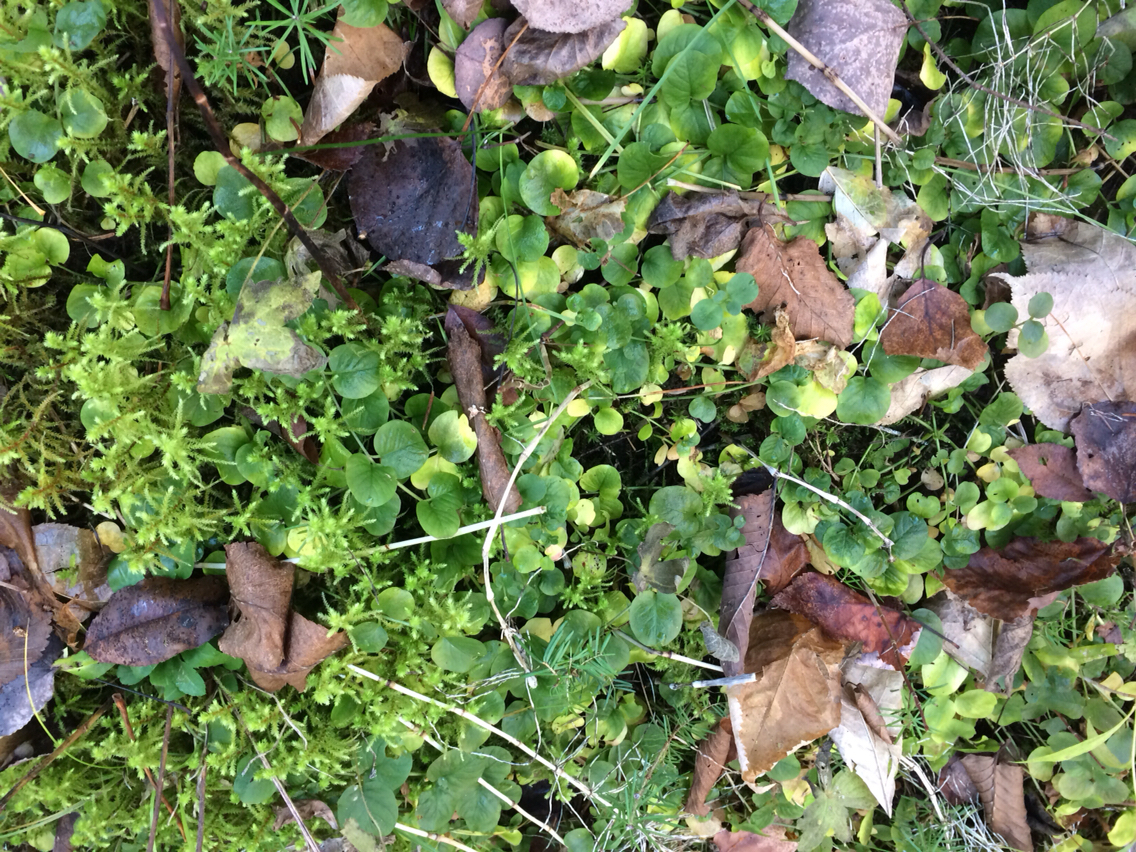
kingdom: Plantae
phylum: Tracheophyta
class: Magnoliopsida
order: Ericales
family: Primulaceae
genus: Lysimachia
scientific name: Lysimachia nummularia
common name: Moneywort
